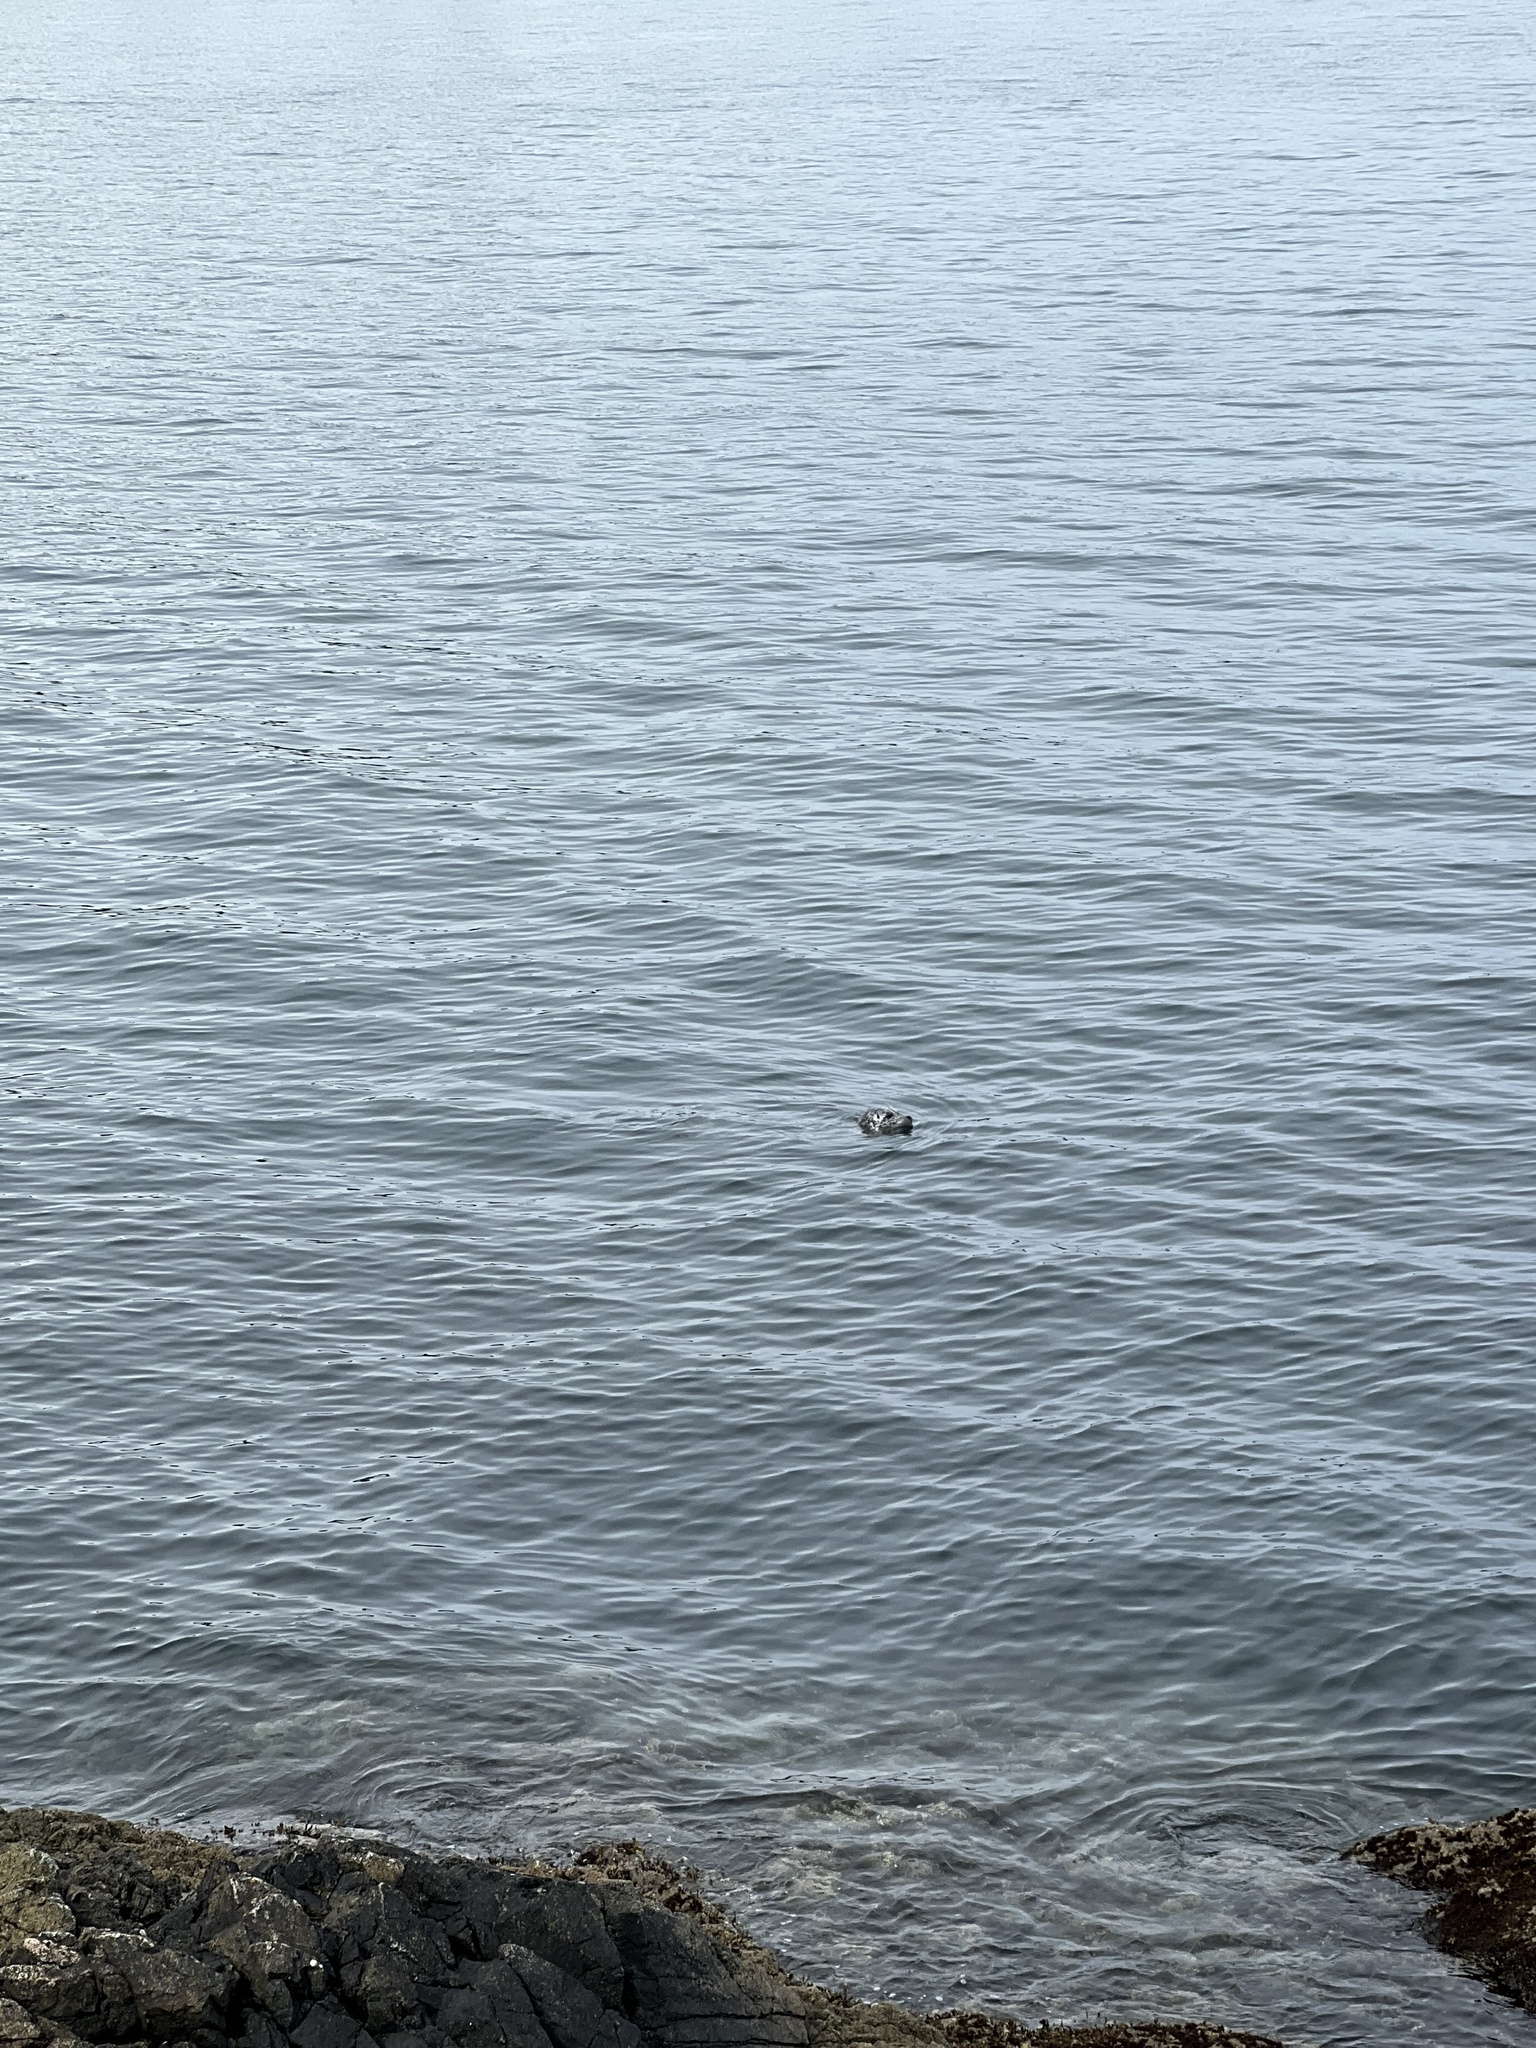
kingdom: Animalia
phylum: Chordata
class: Mammalia
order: Carnivora
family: Phocidae
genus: Phoca
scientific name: Phoca vitulina
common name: Harbor seal
